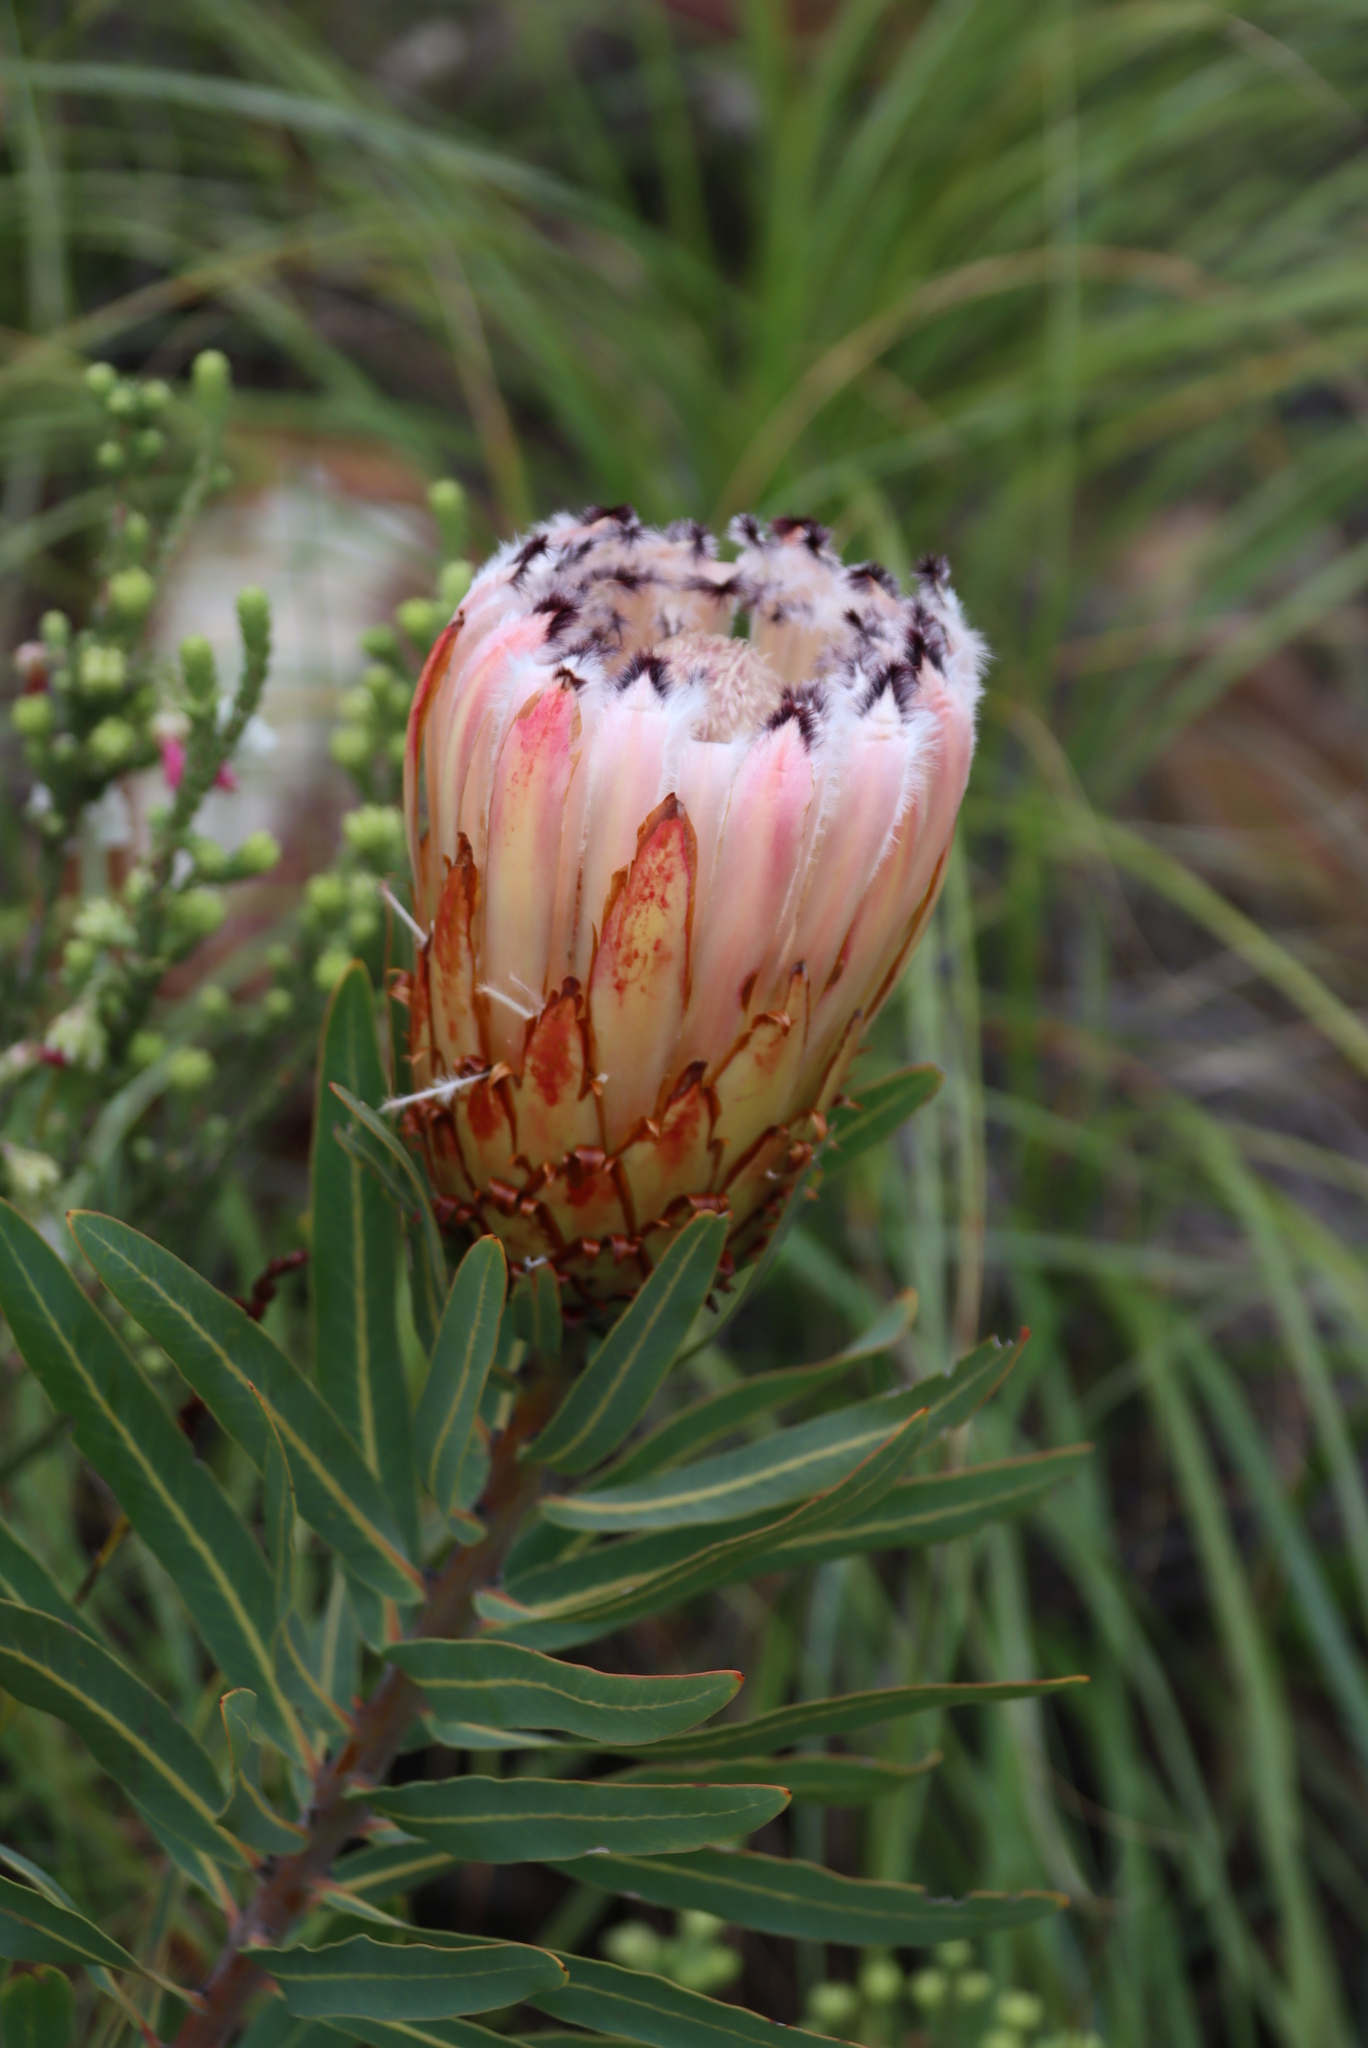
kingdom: Plantae
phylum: Tracheophyta
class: Magnoliopsida
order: Proteales
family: Proteaceae
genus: Protea
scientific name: Protea neriifolia
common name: Blue sugarbush
